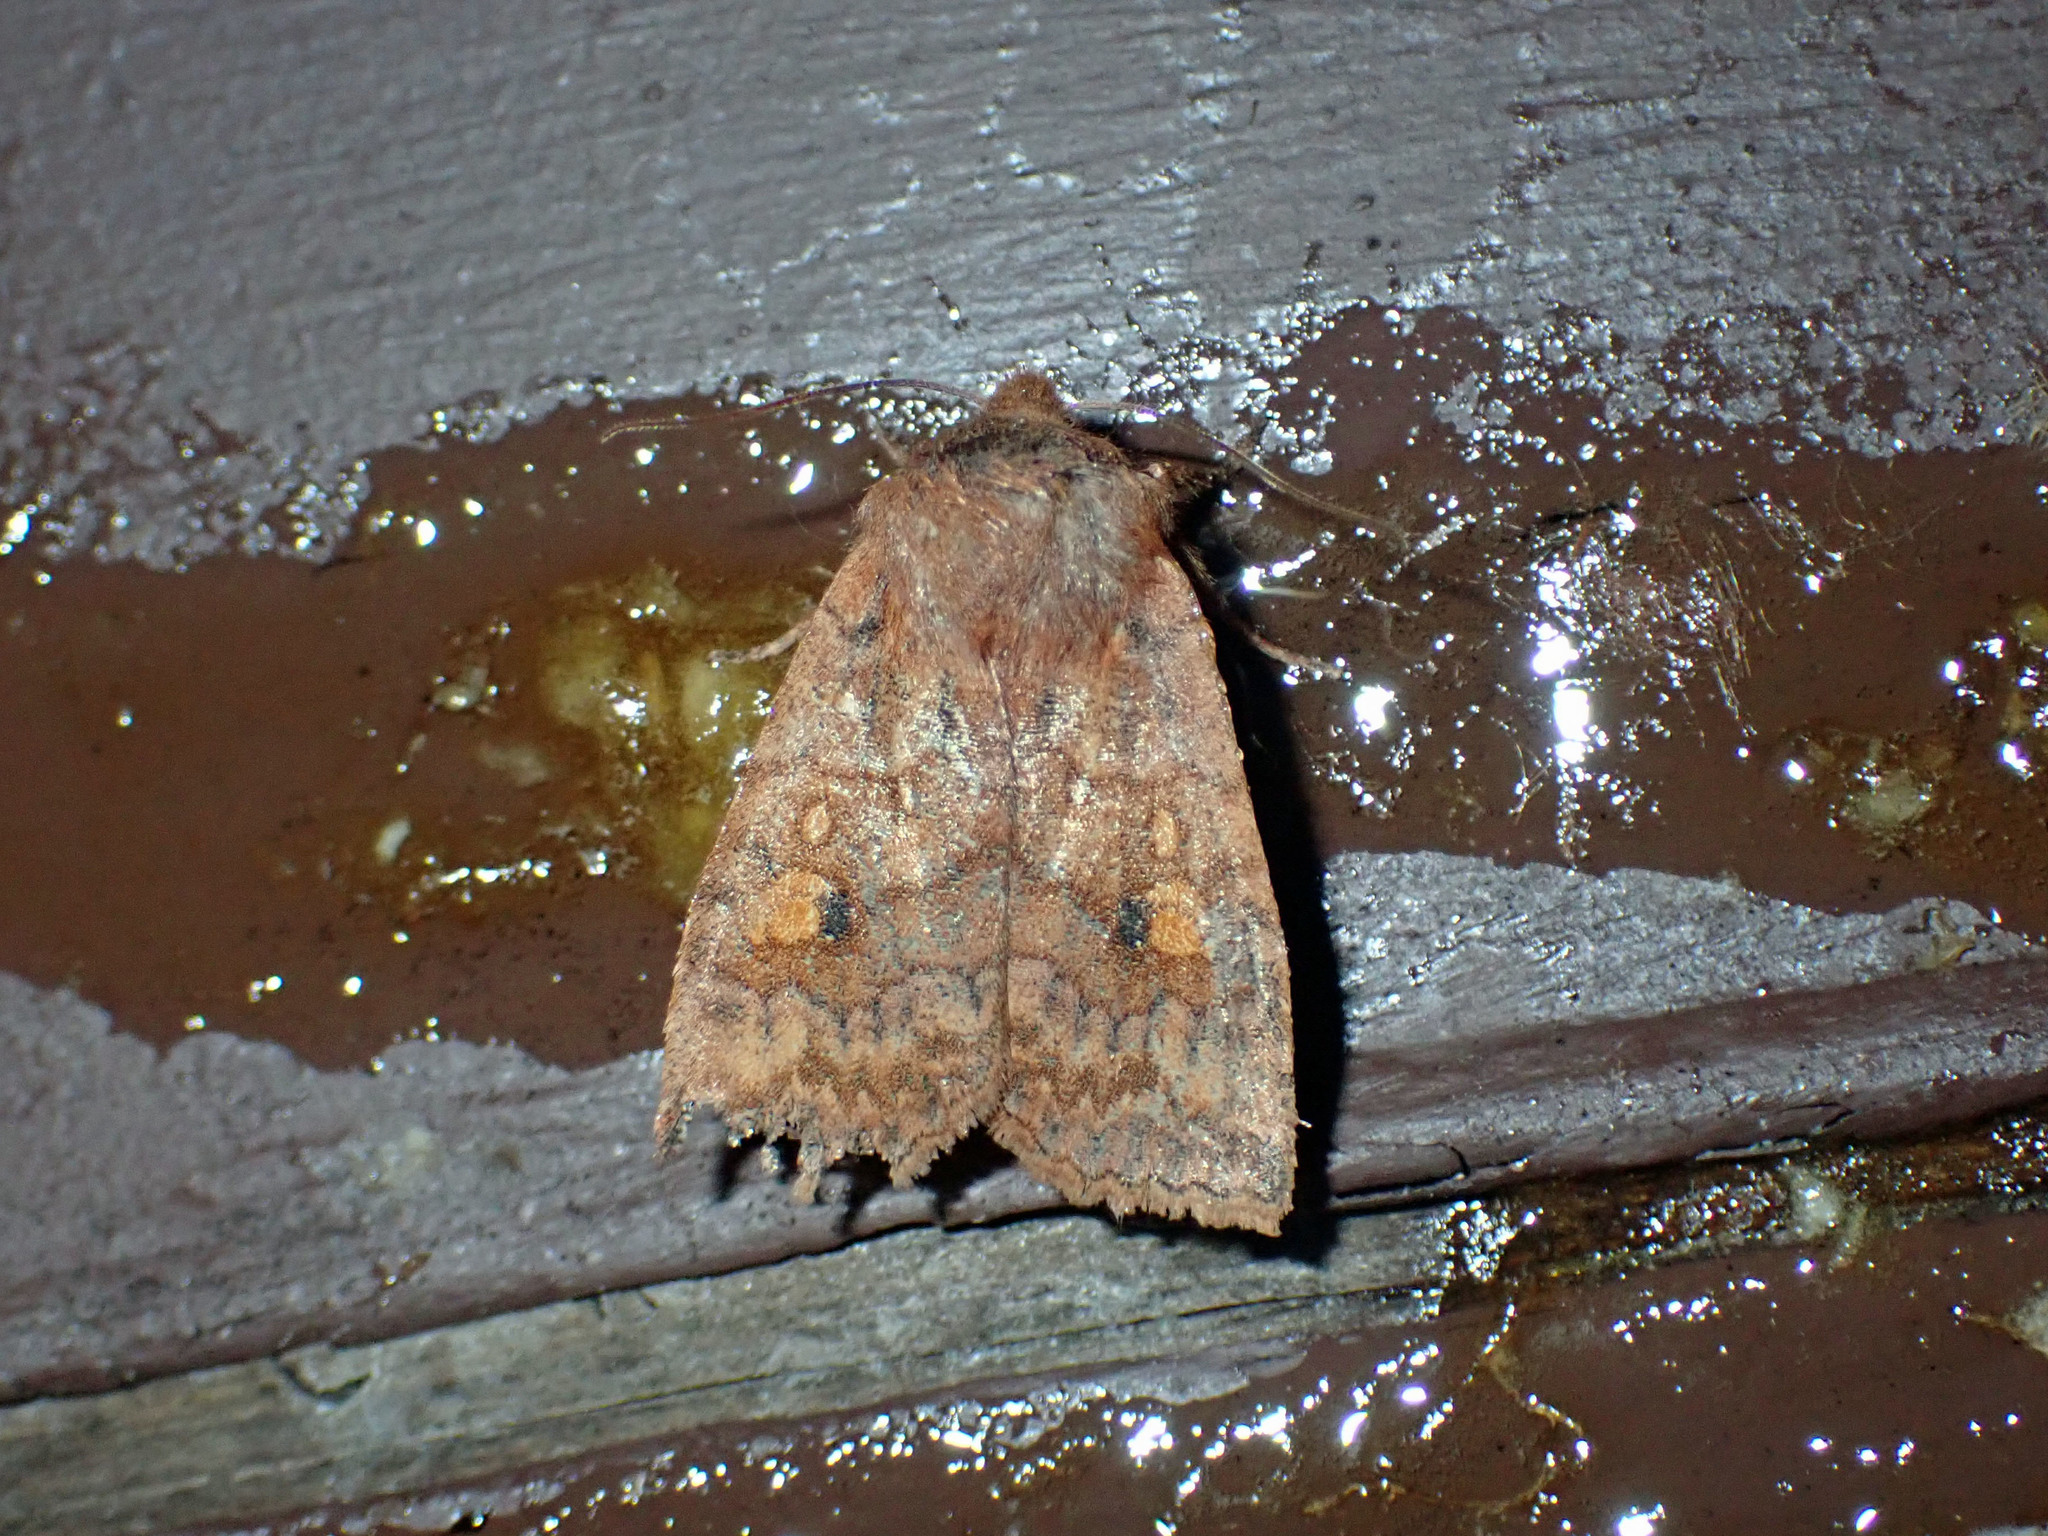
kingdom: Animalia
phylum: Arthropoda
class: Insecta
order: Lepidoptera
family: Noctuidae
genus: Eupsilia
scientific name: Eupsilia tristigmata
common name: Three-spotted sallow
